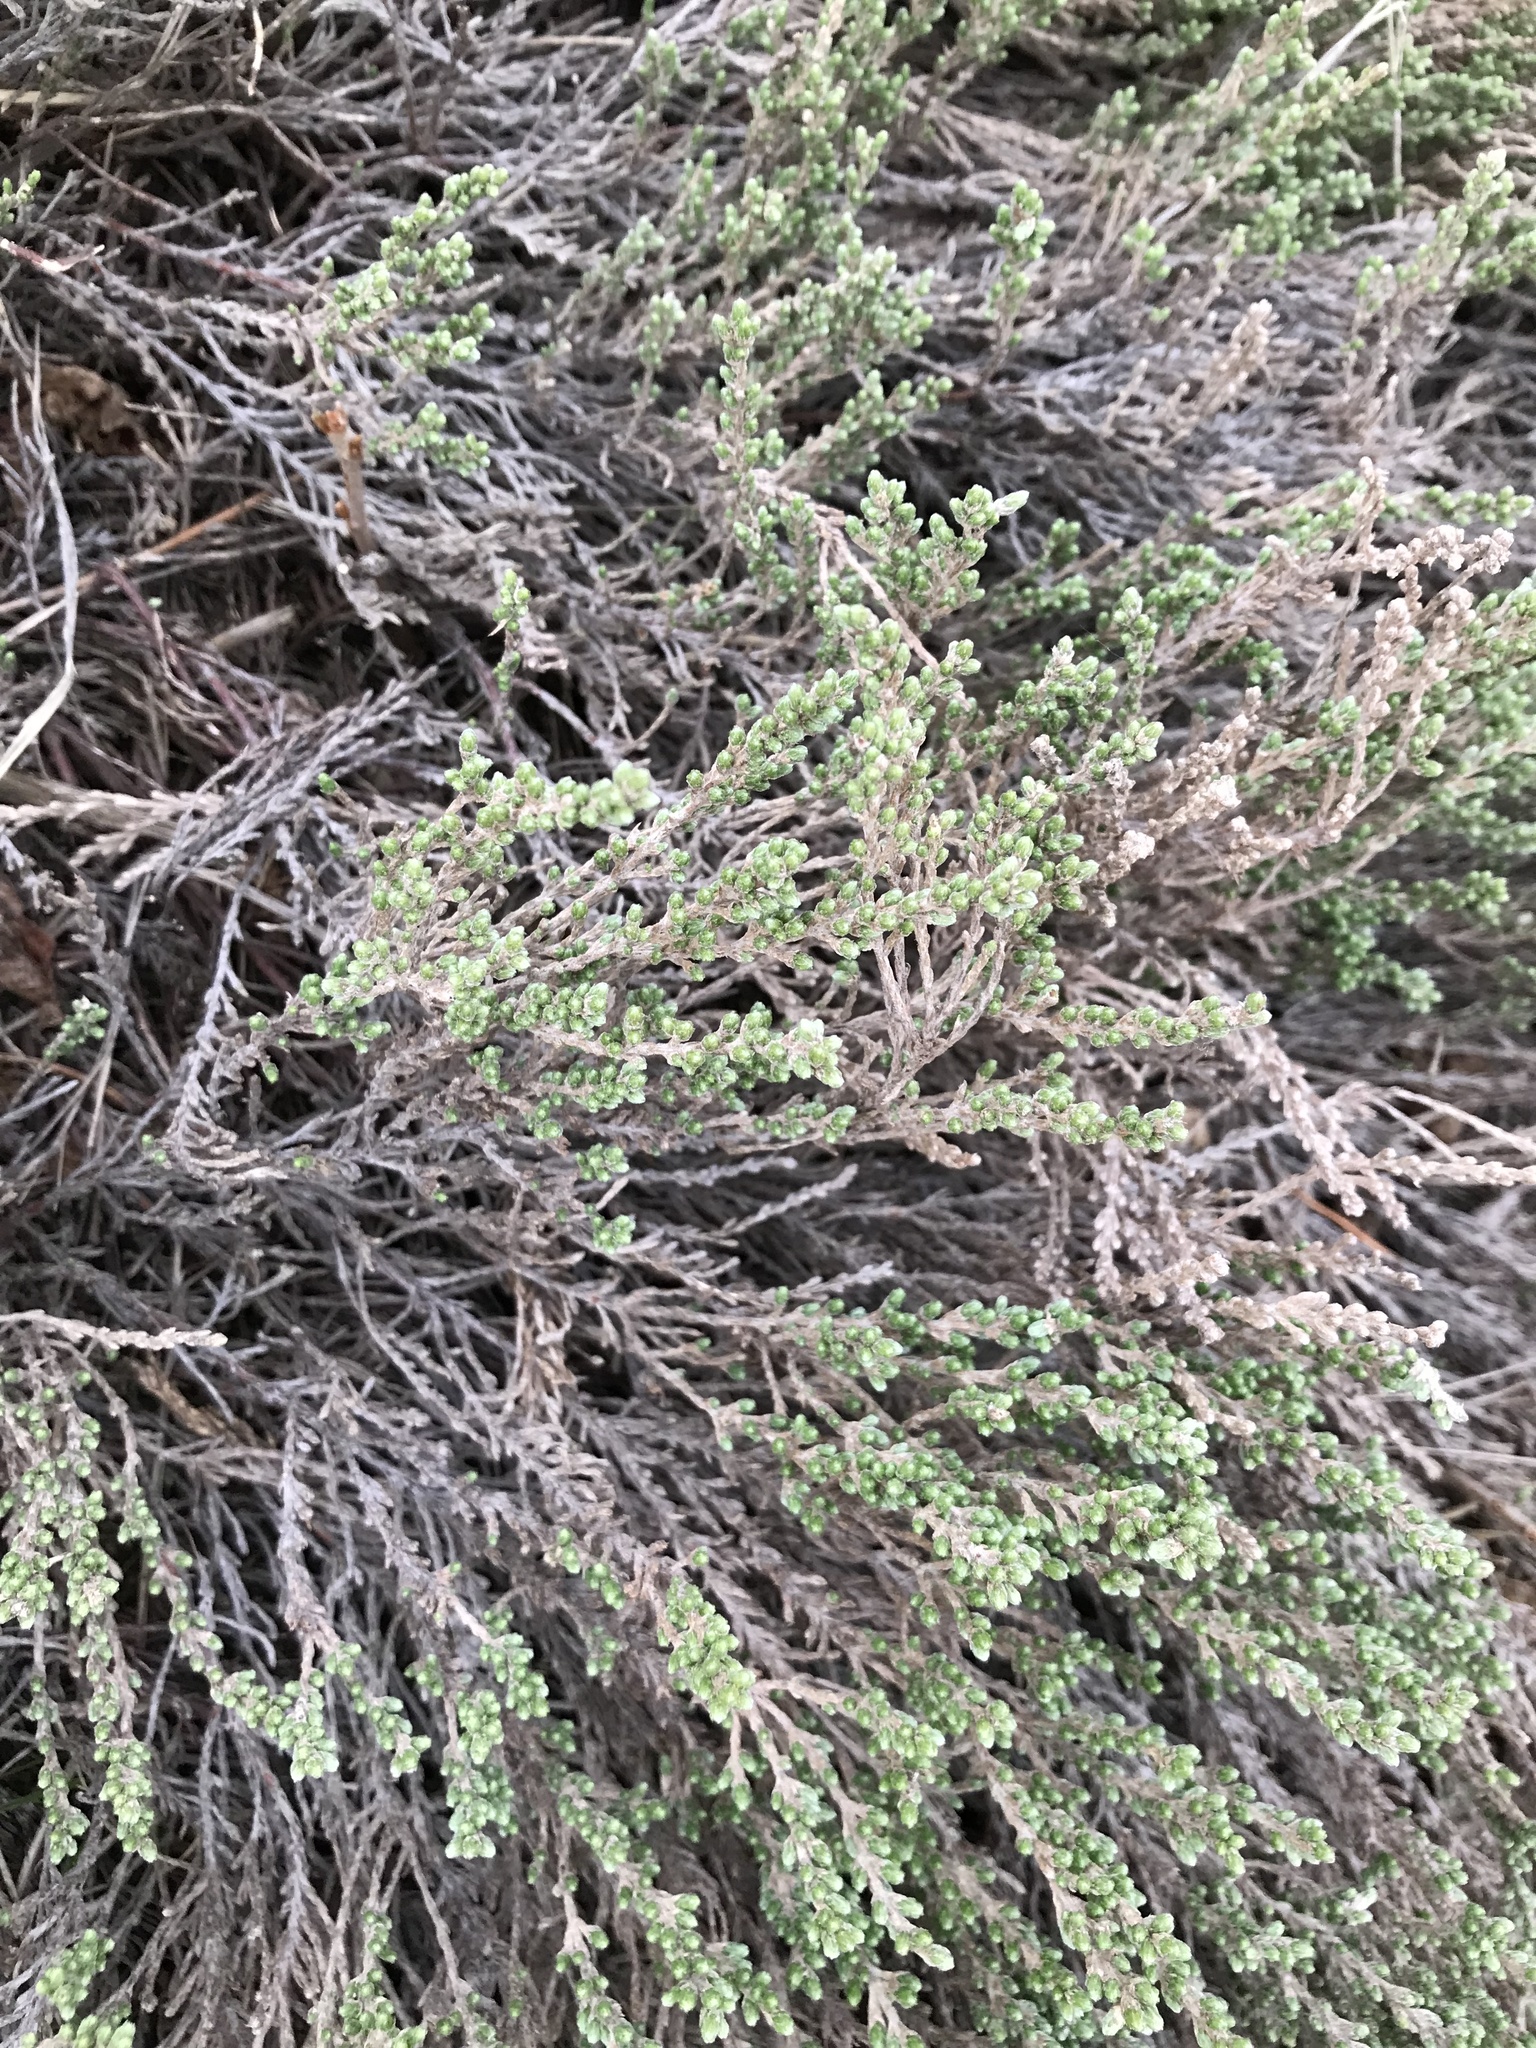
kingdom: Plantae
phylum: Tracheophyta
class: Magnoliopsida
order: Malvales
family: Cistaceae
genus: Hudsonia
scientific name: Hudsonia tomentosa
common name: Beach-heath
